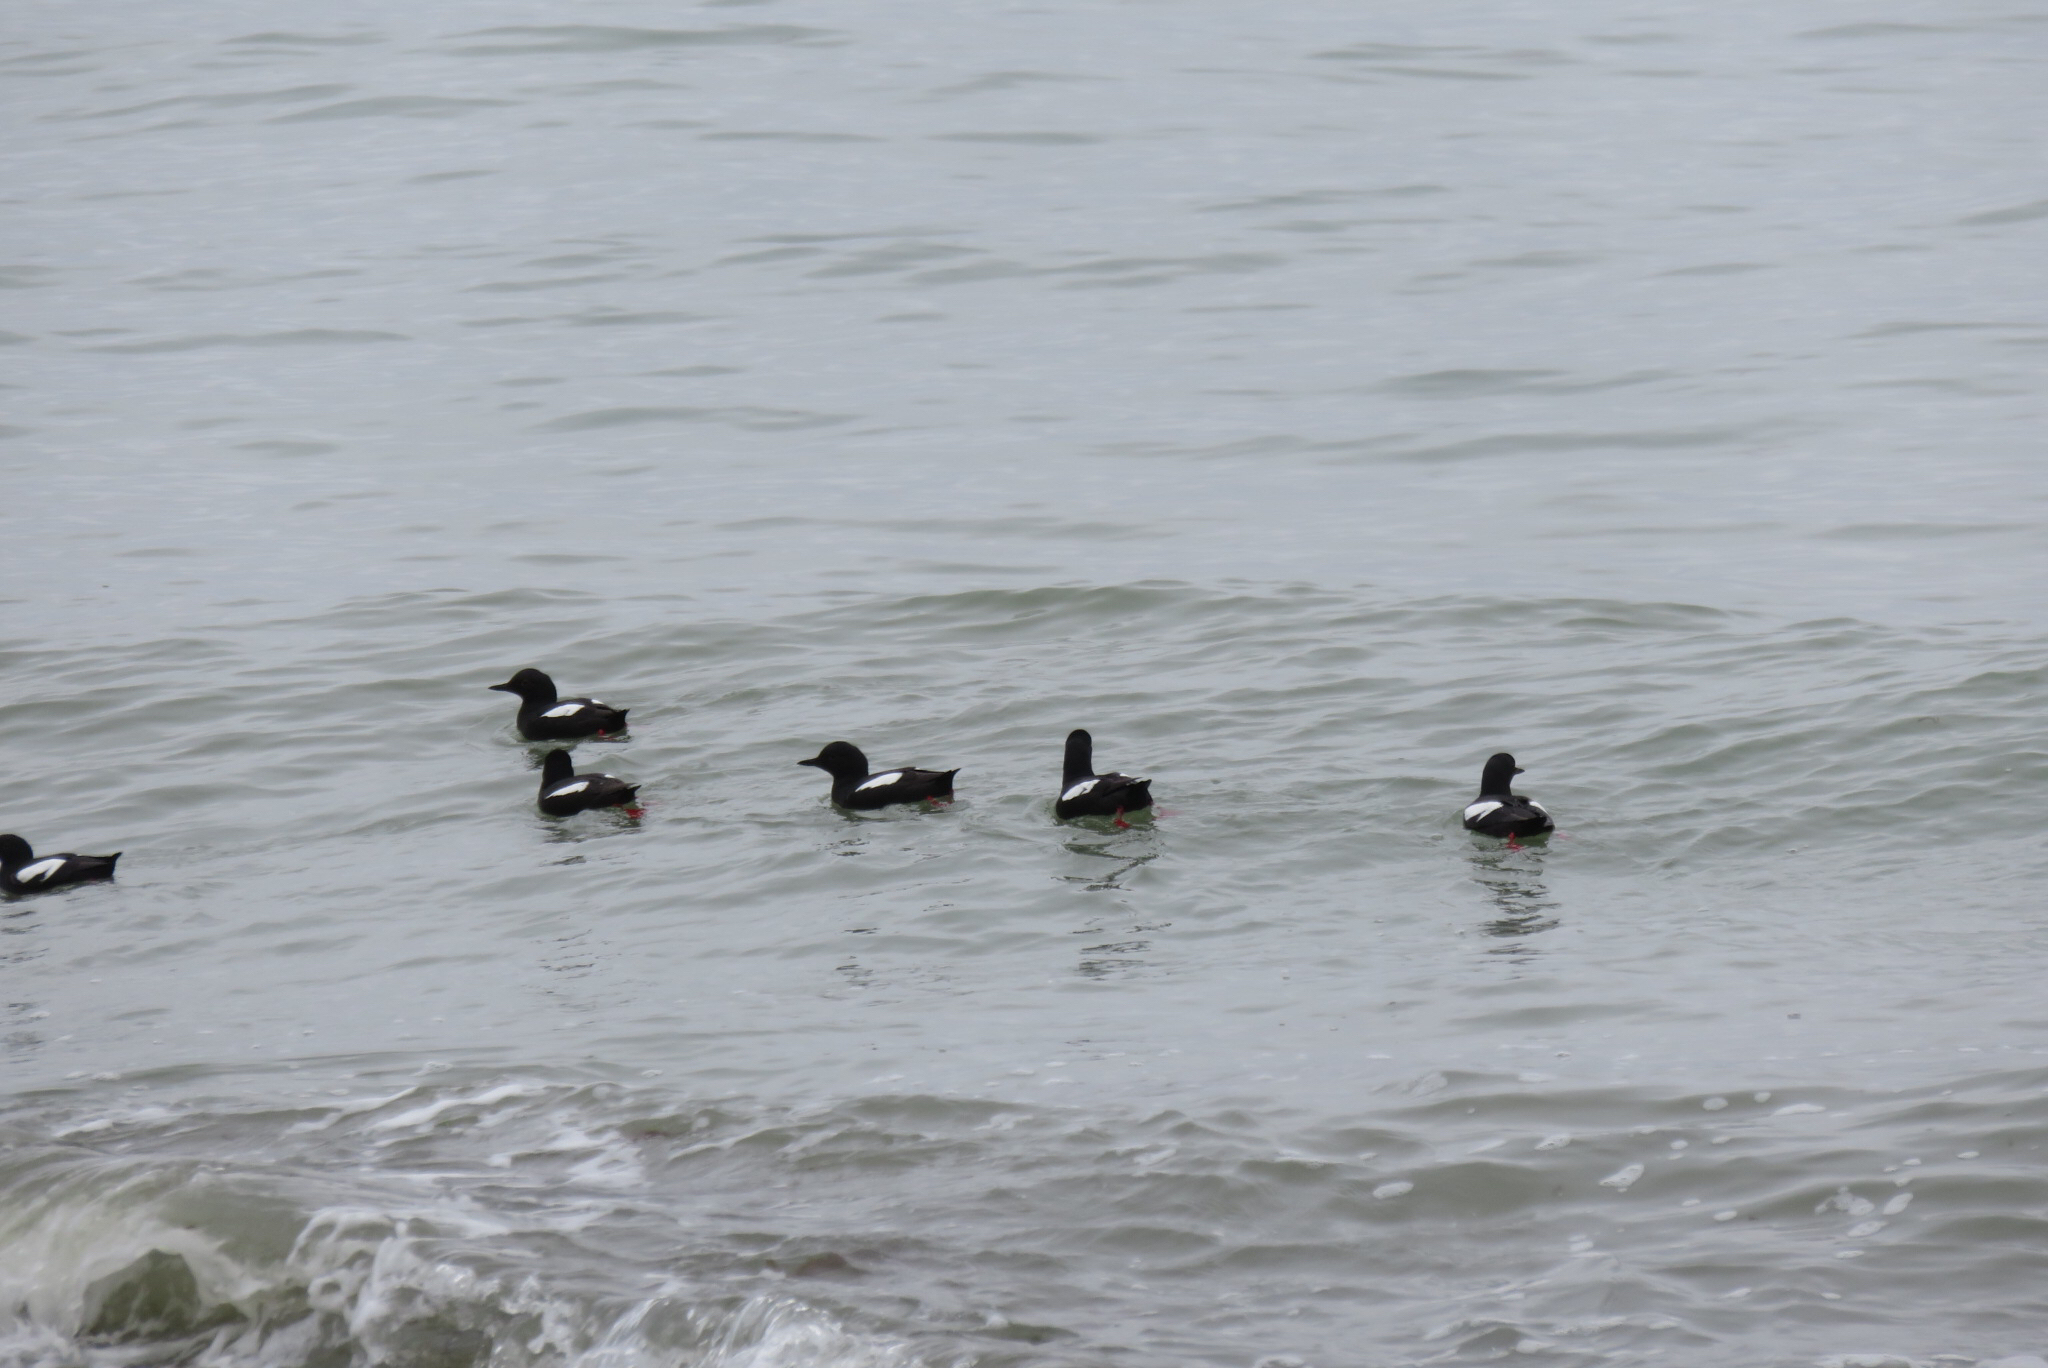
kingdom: Animalia
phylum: Chordata
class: Aves
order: Charadriiformes
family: Alcidae
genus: Cepphus
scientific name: Cepphus columba
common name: Pigeon guillemot
